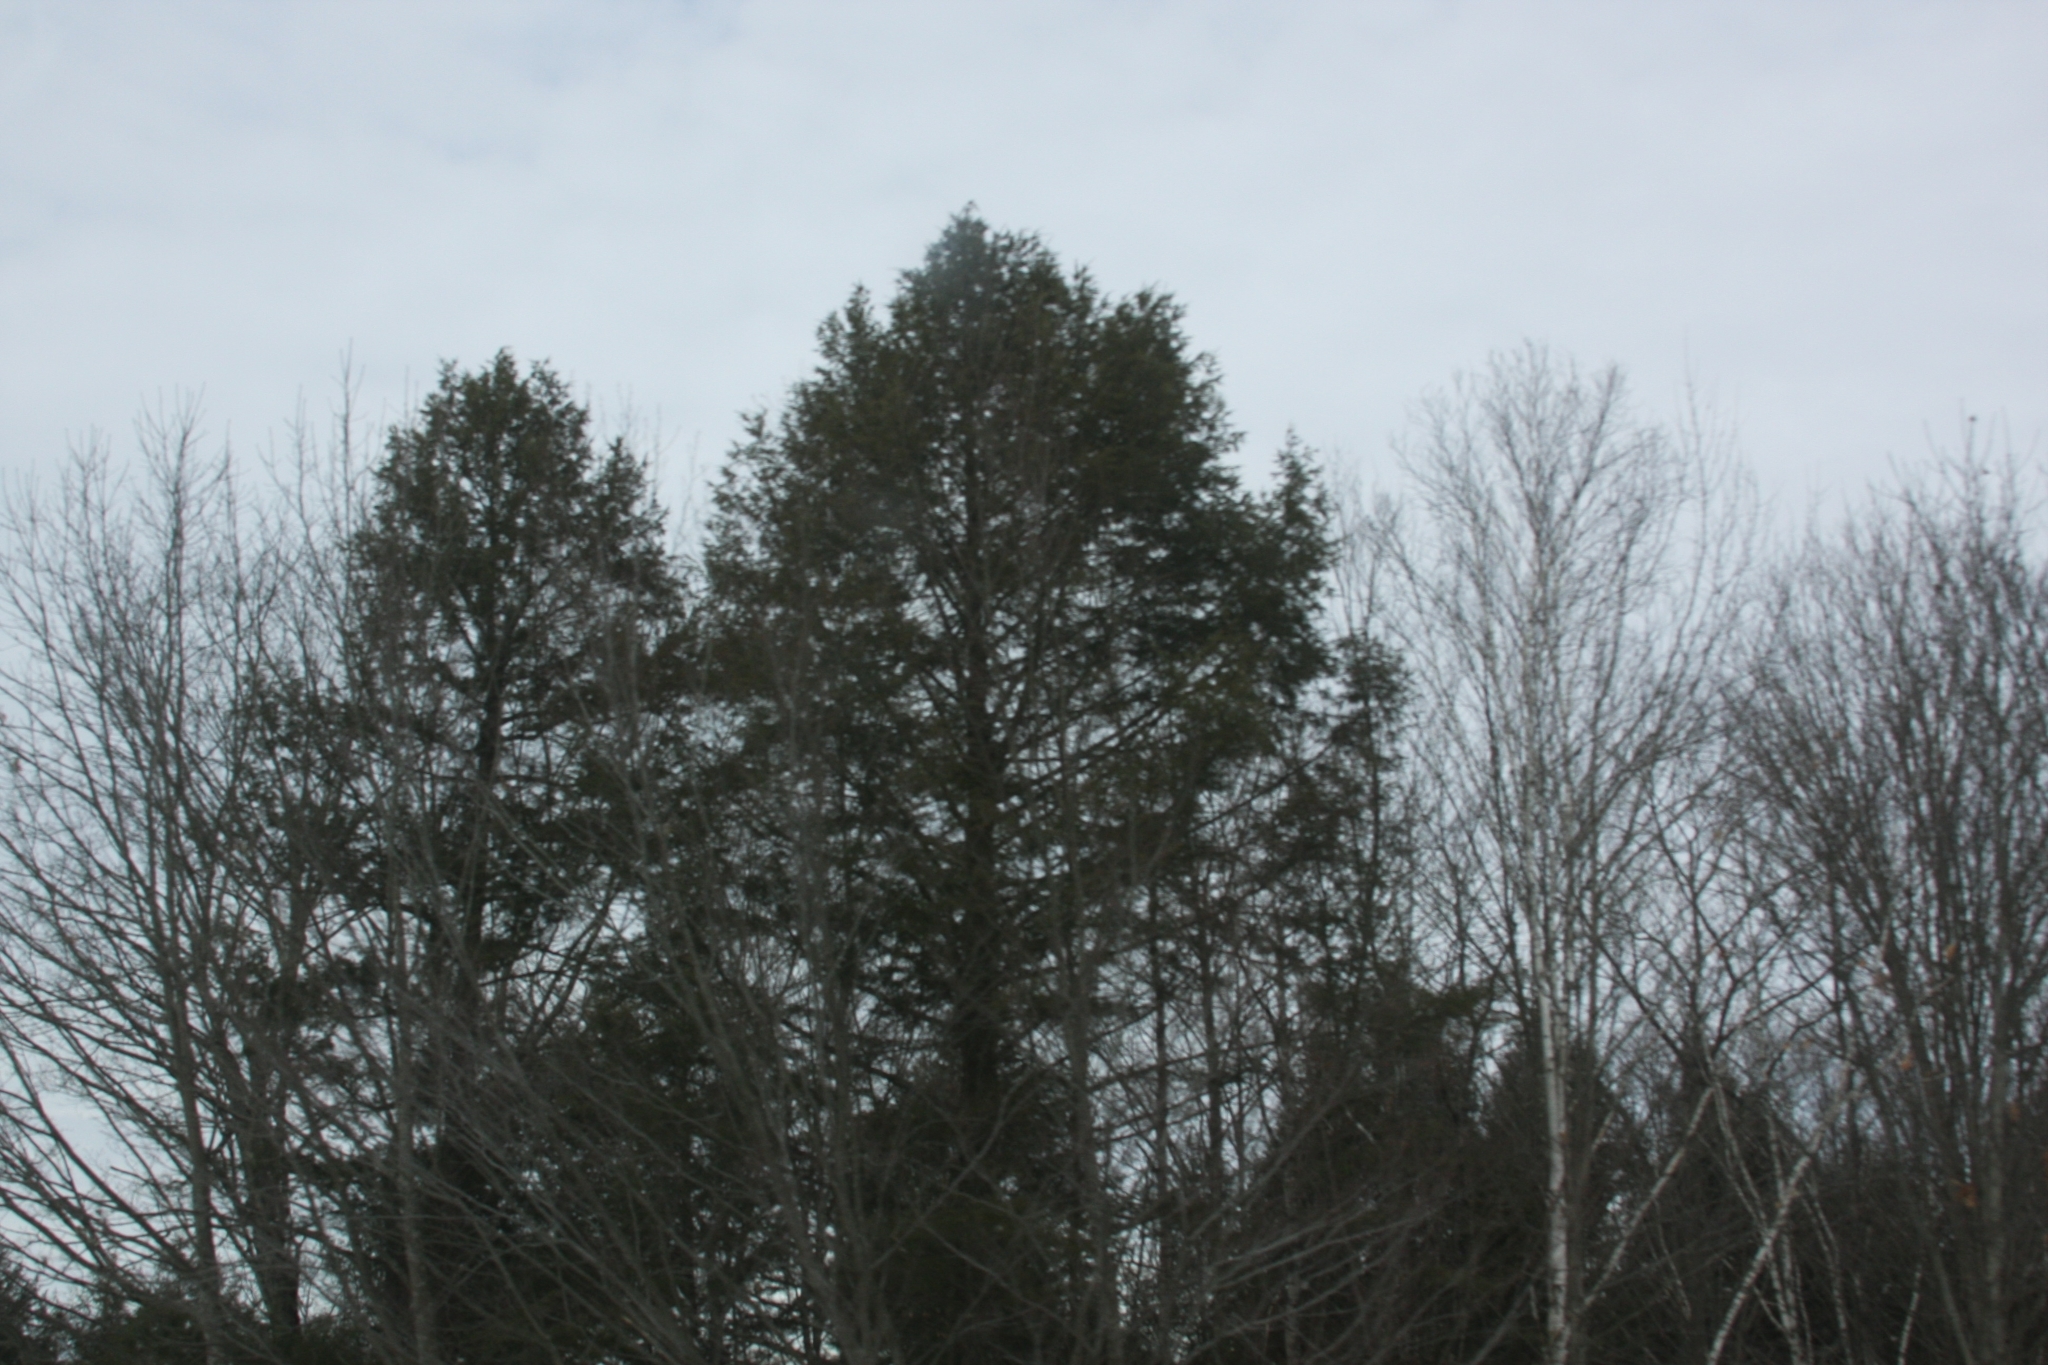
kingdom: Plantae
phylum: Tracheophyta
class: Pinopsida
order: Pinales
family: Pinaceae
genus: Pinus
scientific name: Pinus strobus
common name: Weymouth pine
